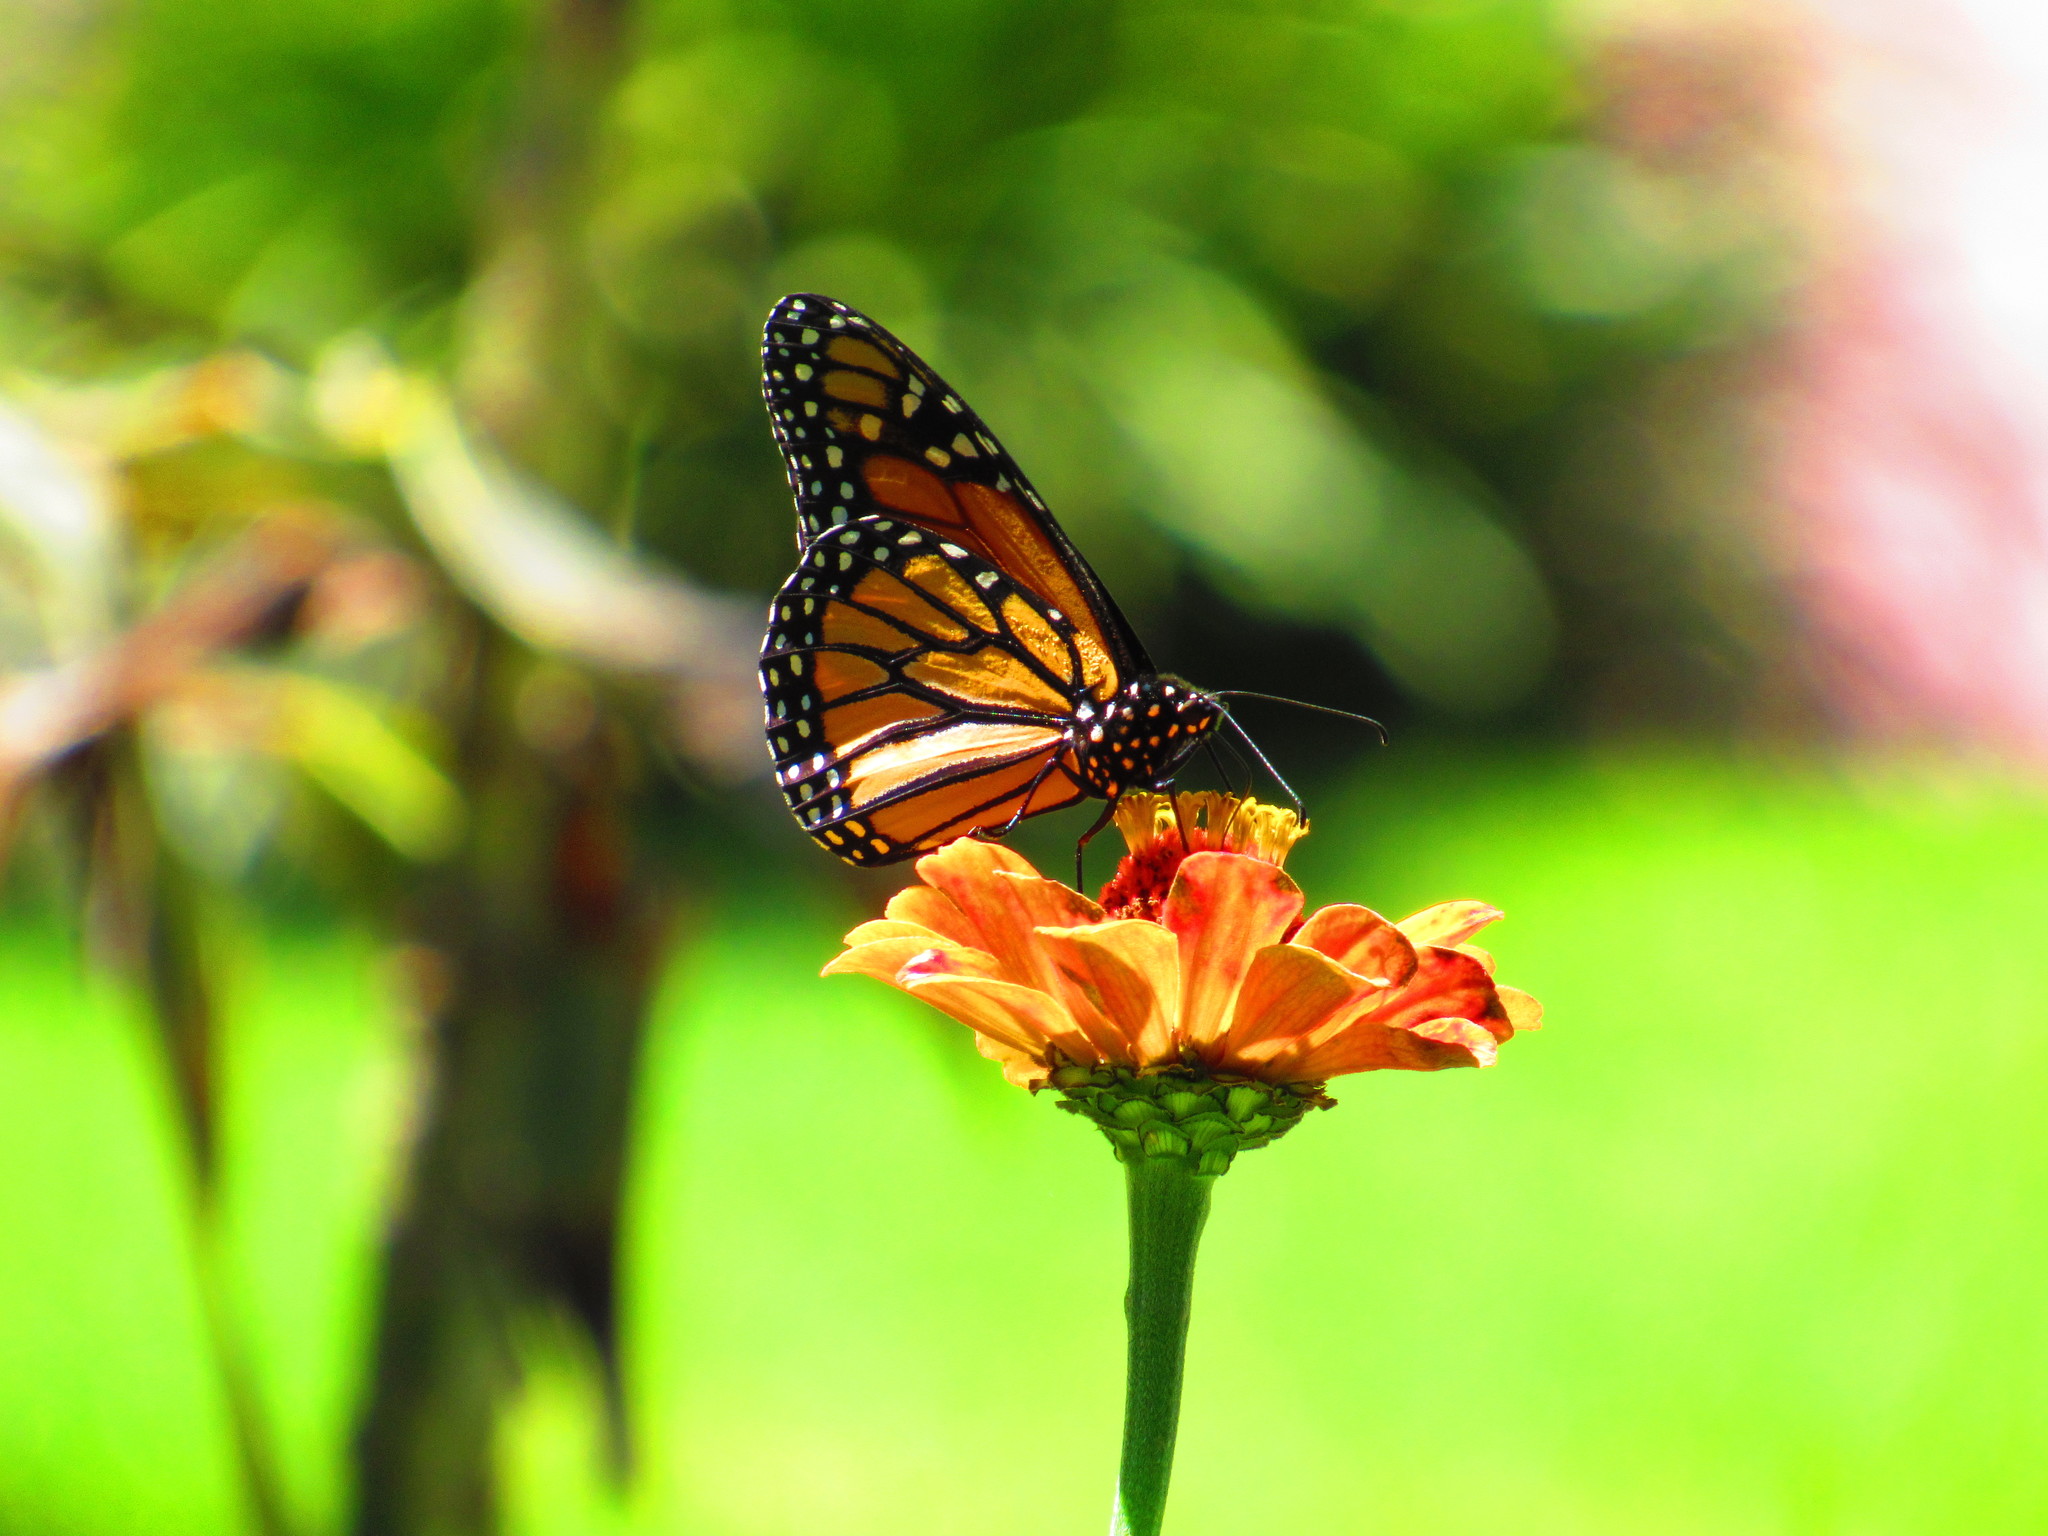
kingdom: Animalia
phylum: Arthropoda
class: Insecta
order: Lepidoptera
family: Nymphalidae
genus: Danaus
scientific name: Danaus plexippus
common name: Monarch
